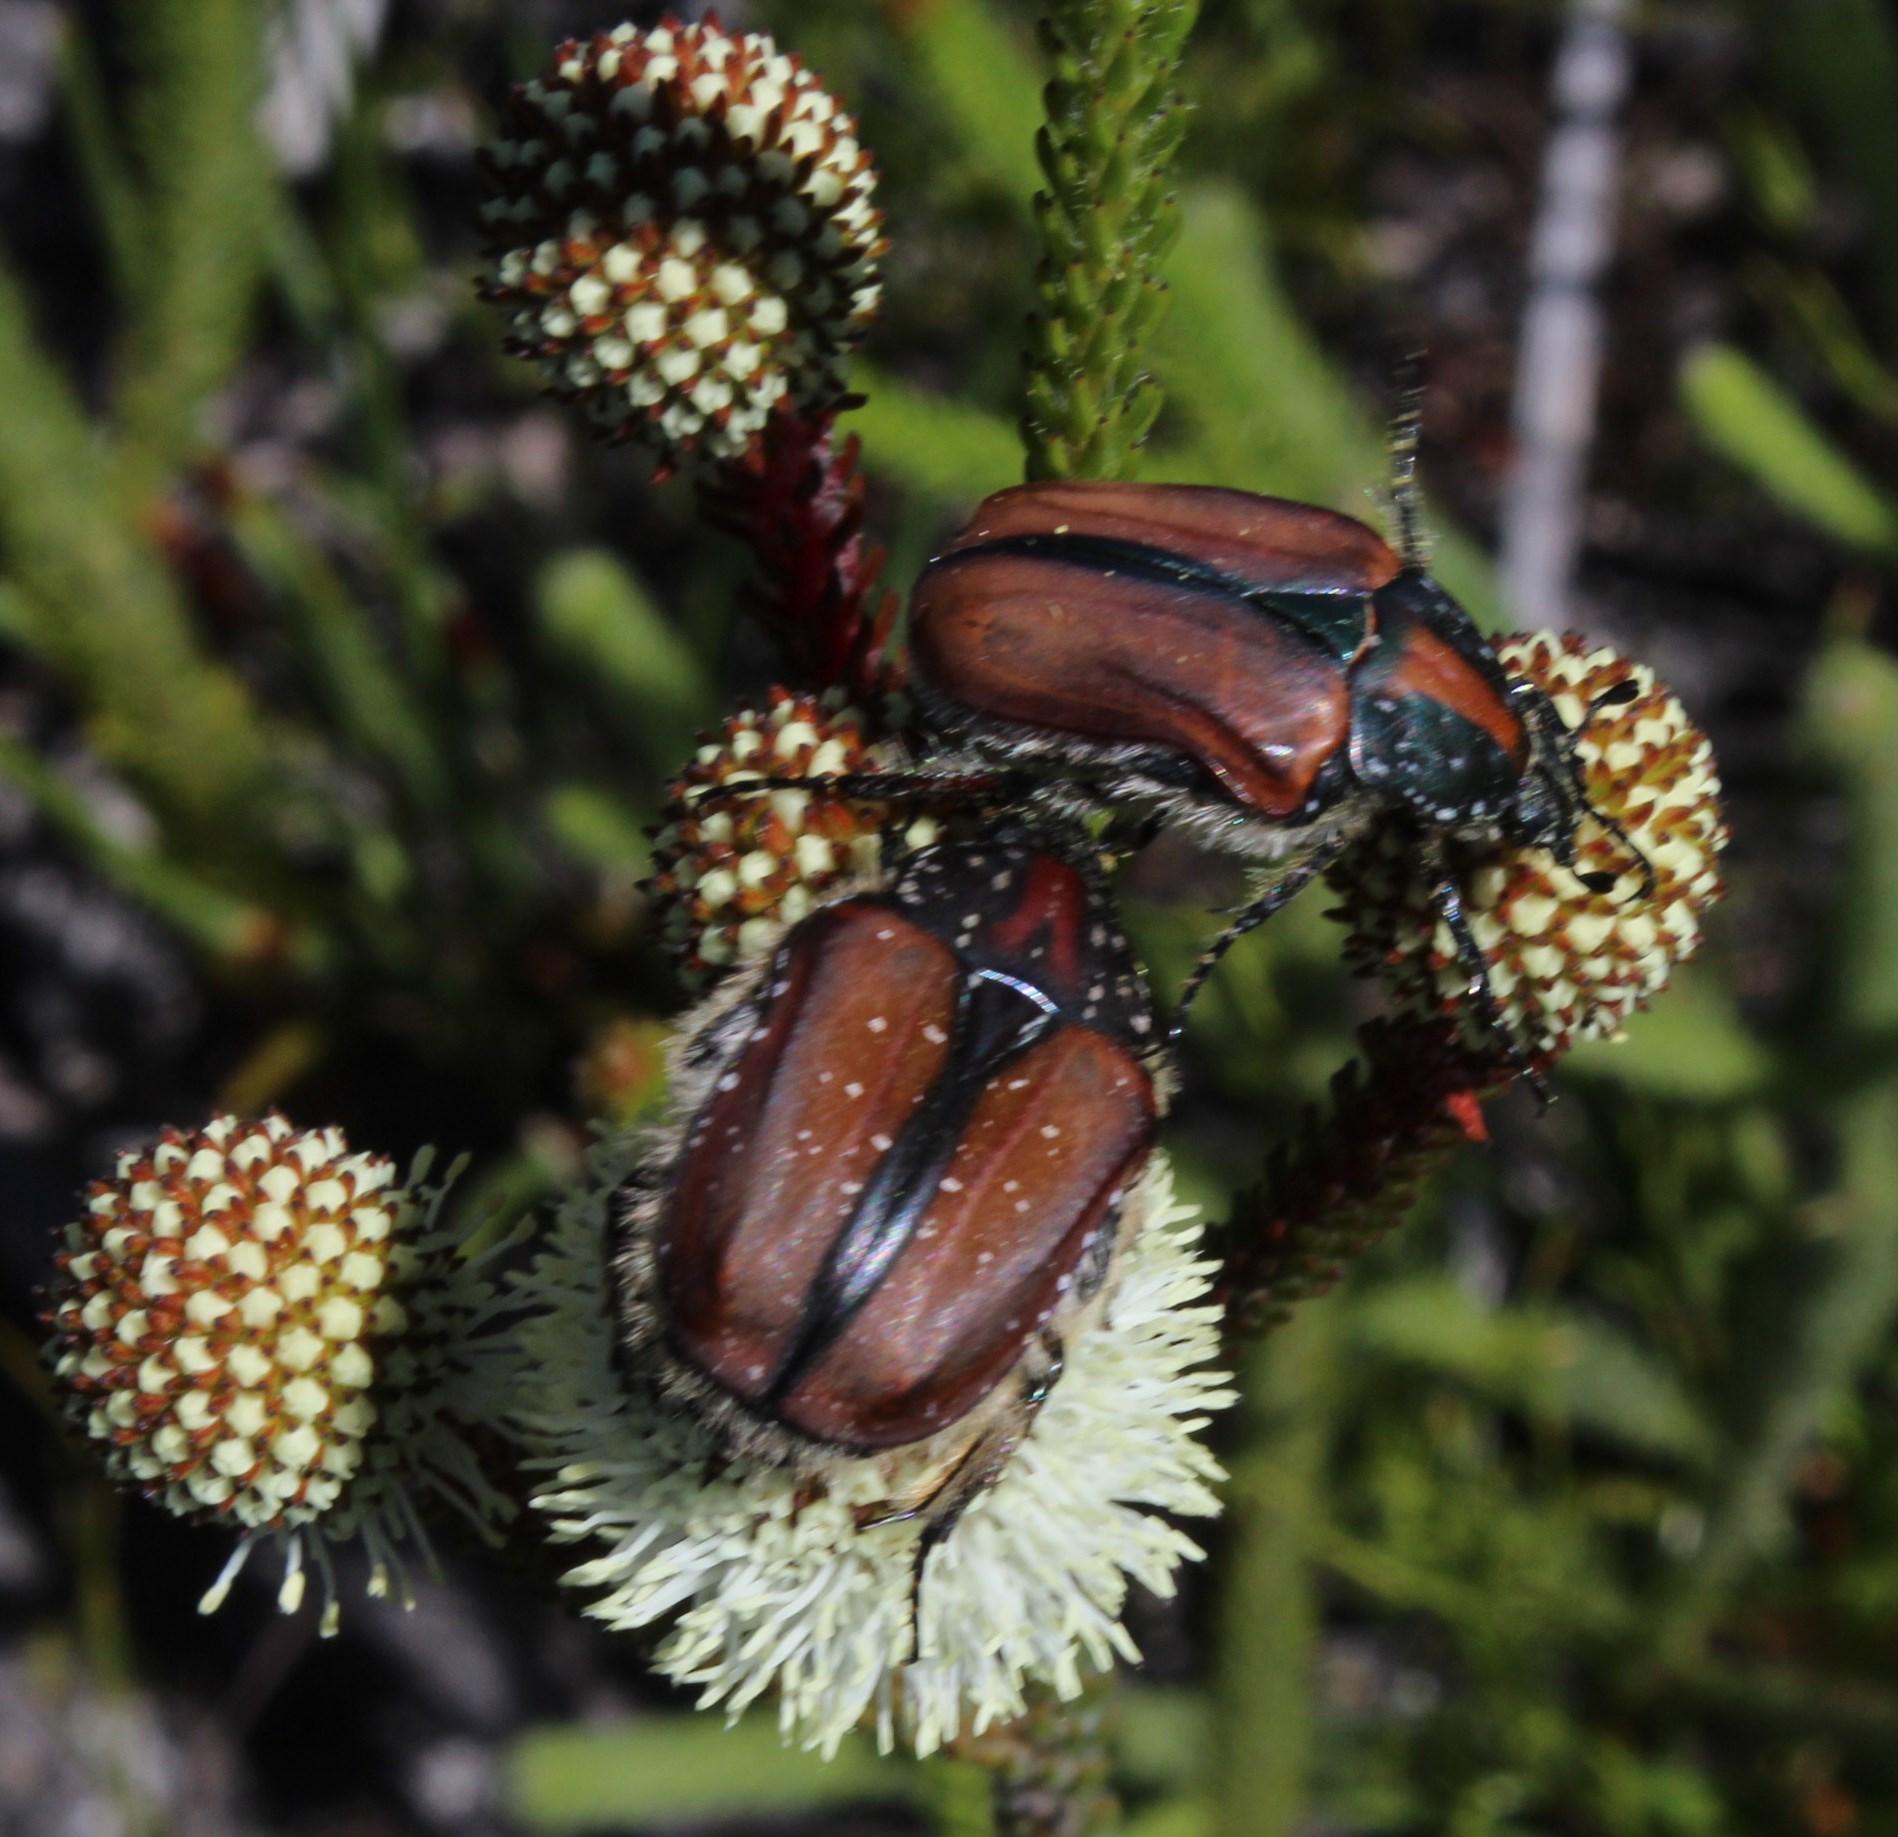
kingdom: Animalia
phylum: Arthropoda
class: Insecta
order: Coleoptera
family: Scarabaeidae
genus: Trichostetha
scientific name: Trichostetha capensis
